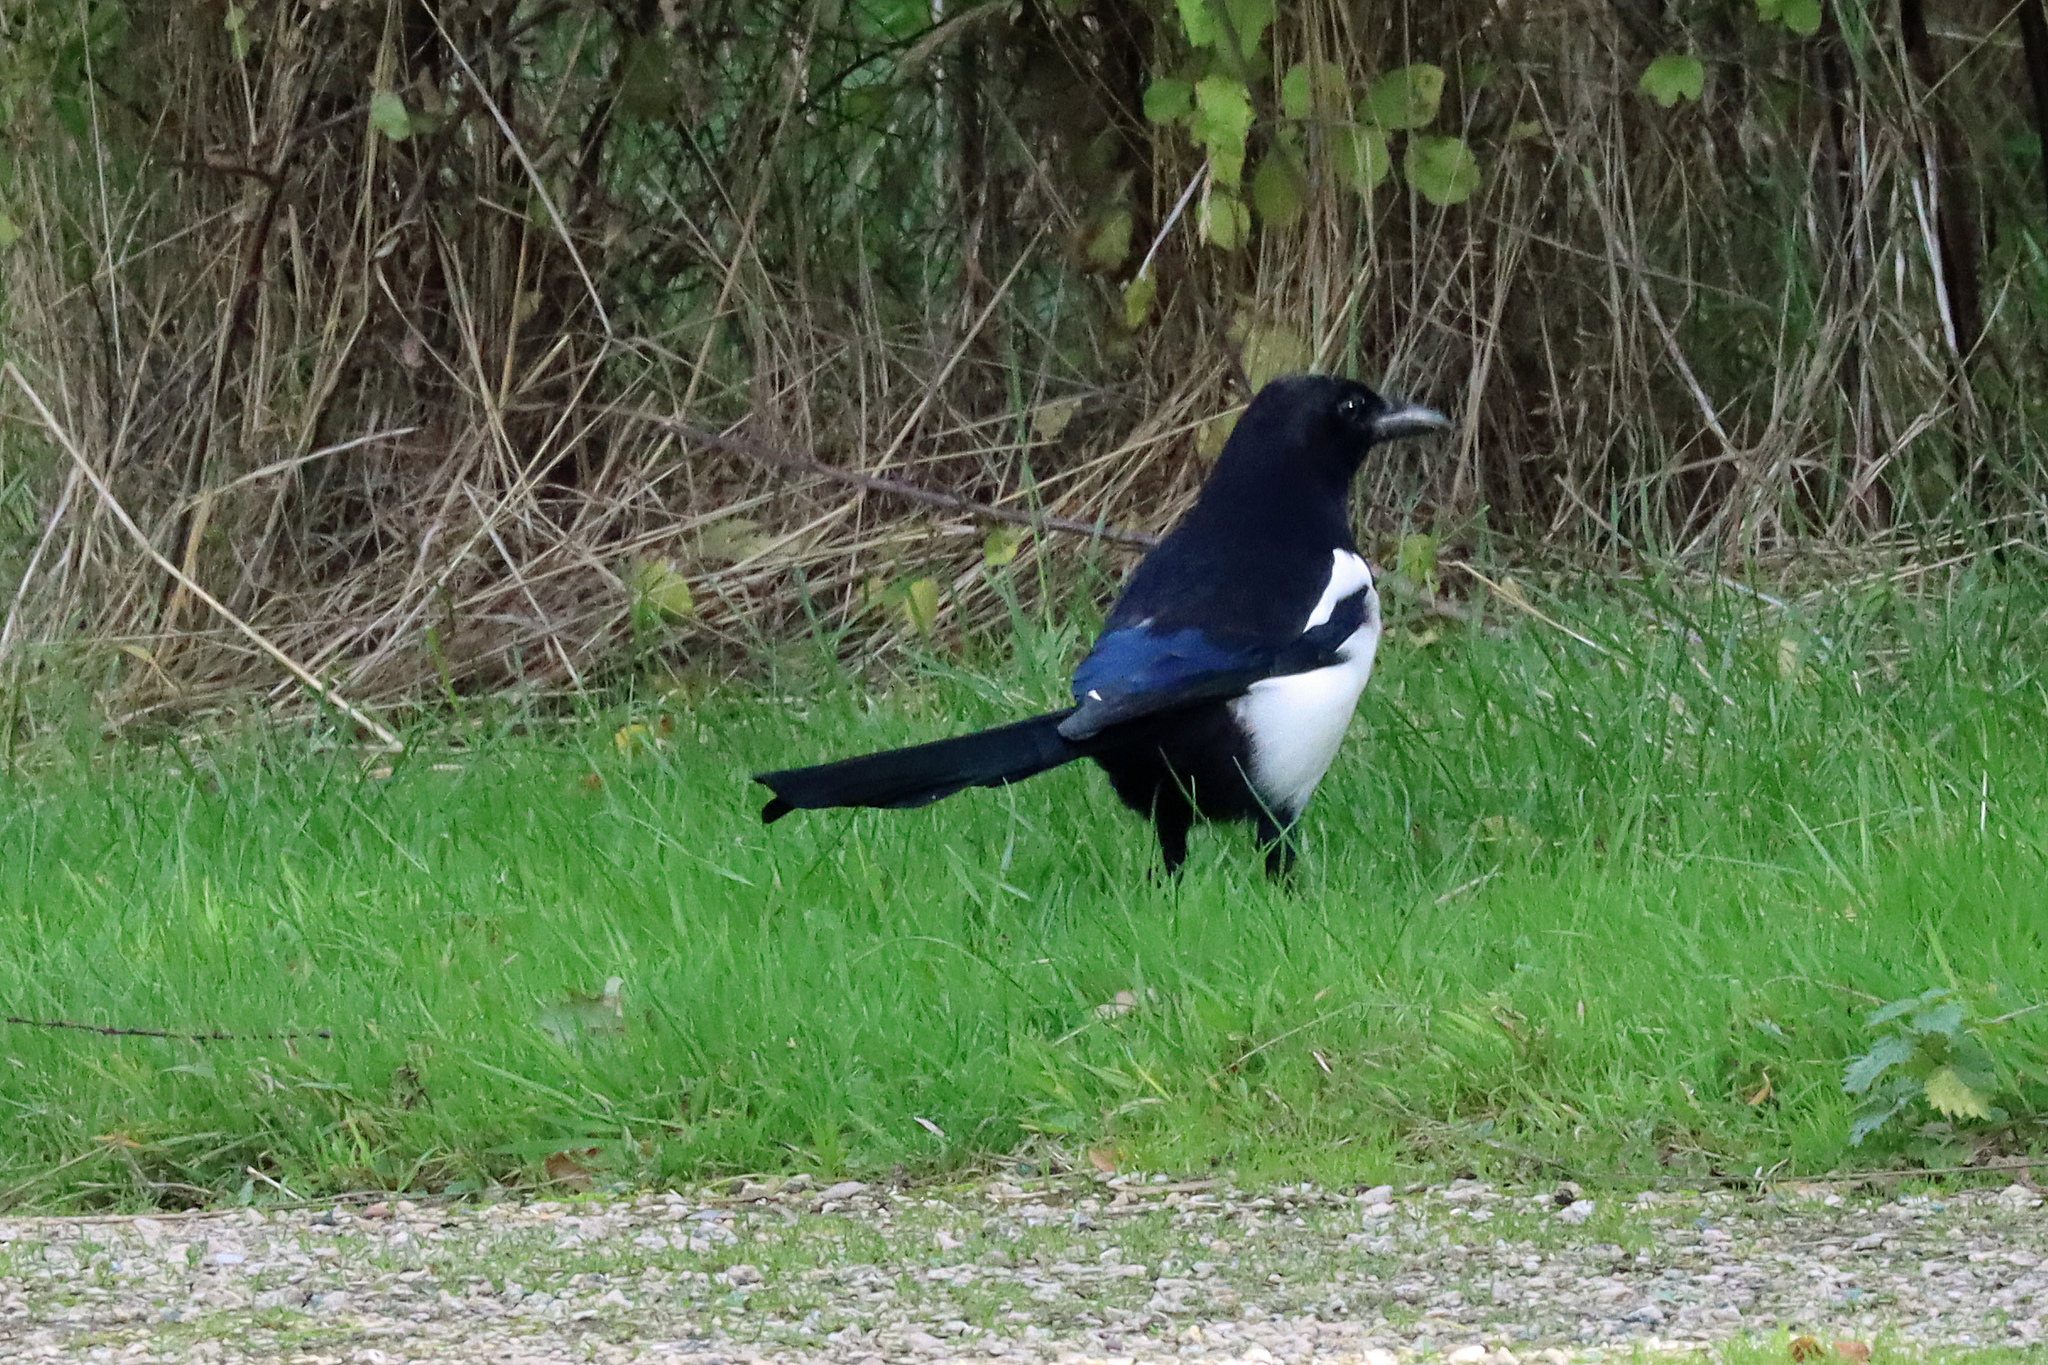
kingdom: Animalia
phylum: Chordata
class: Aves
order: Passeriformes
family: Corvidae
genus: Pica
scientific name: Pica pica
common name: Eurasian magpie
